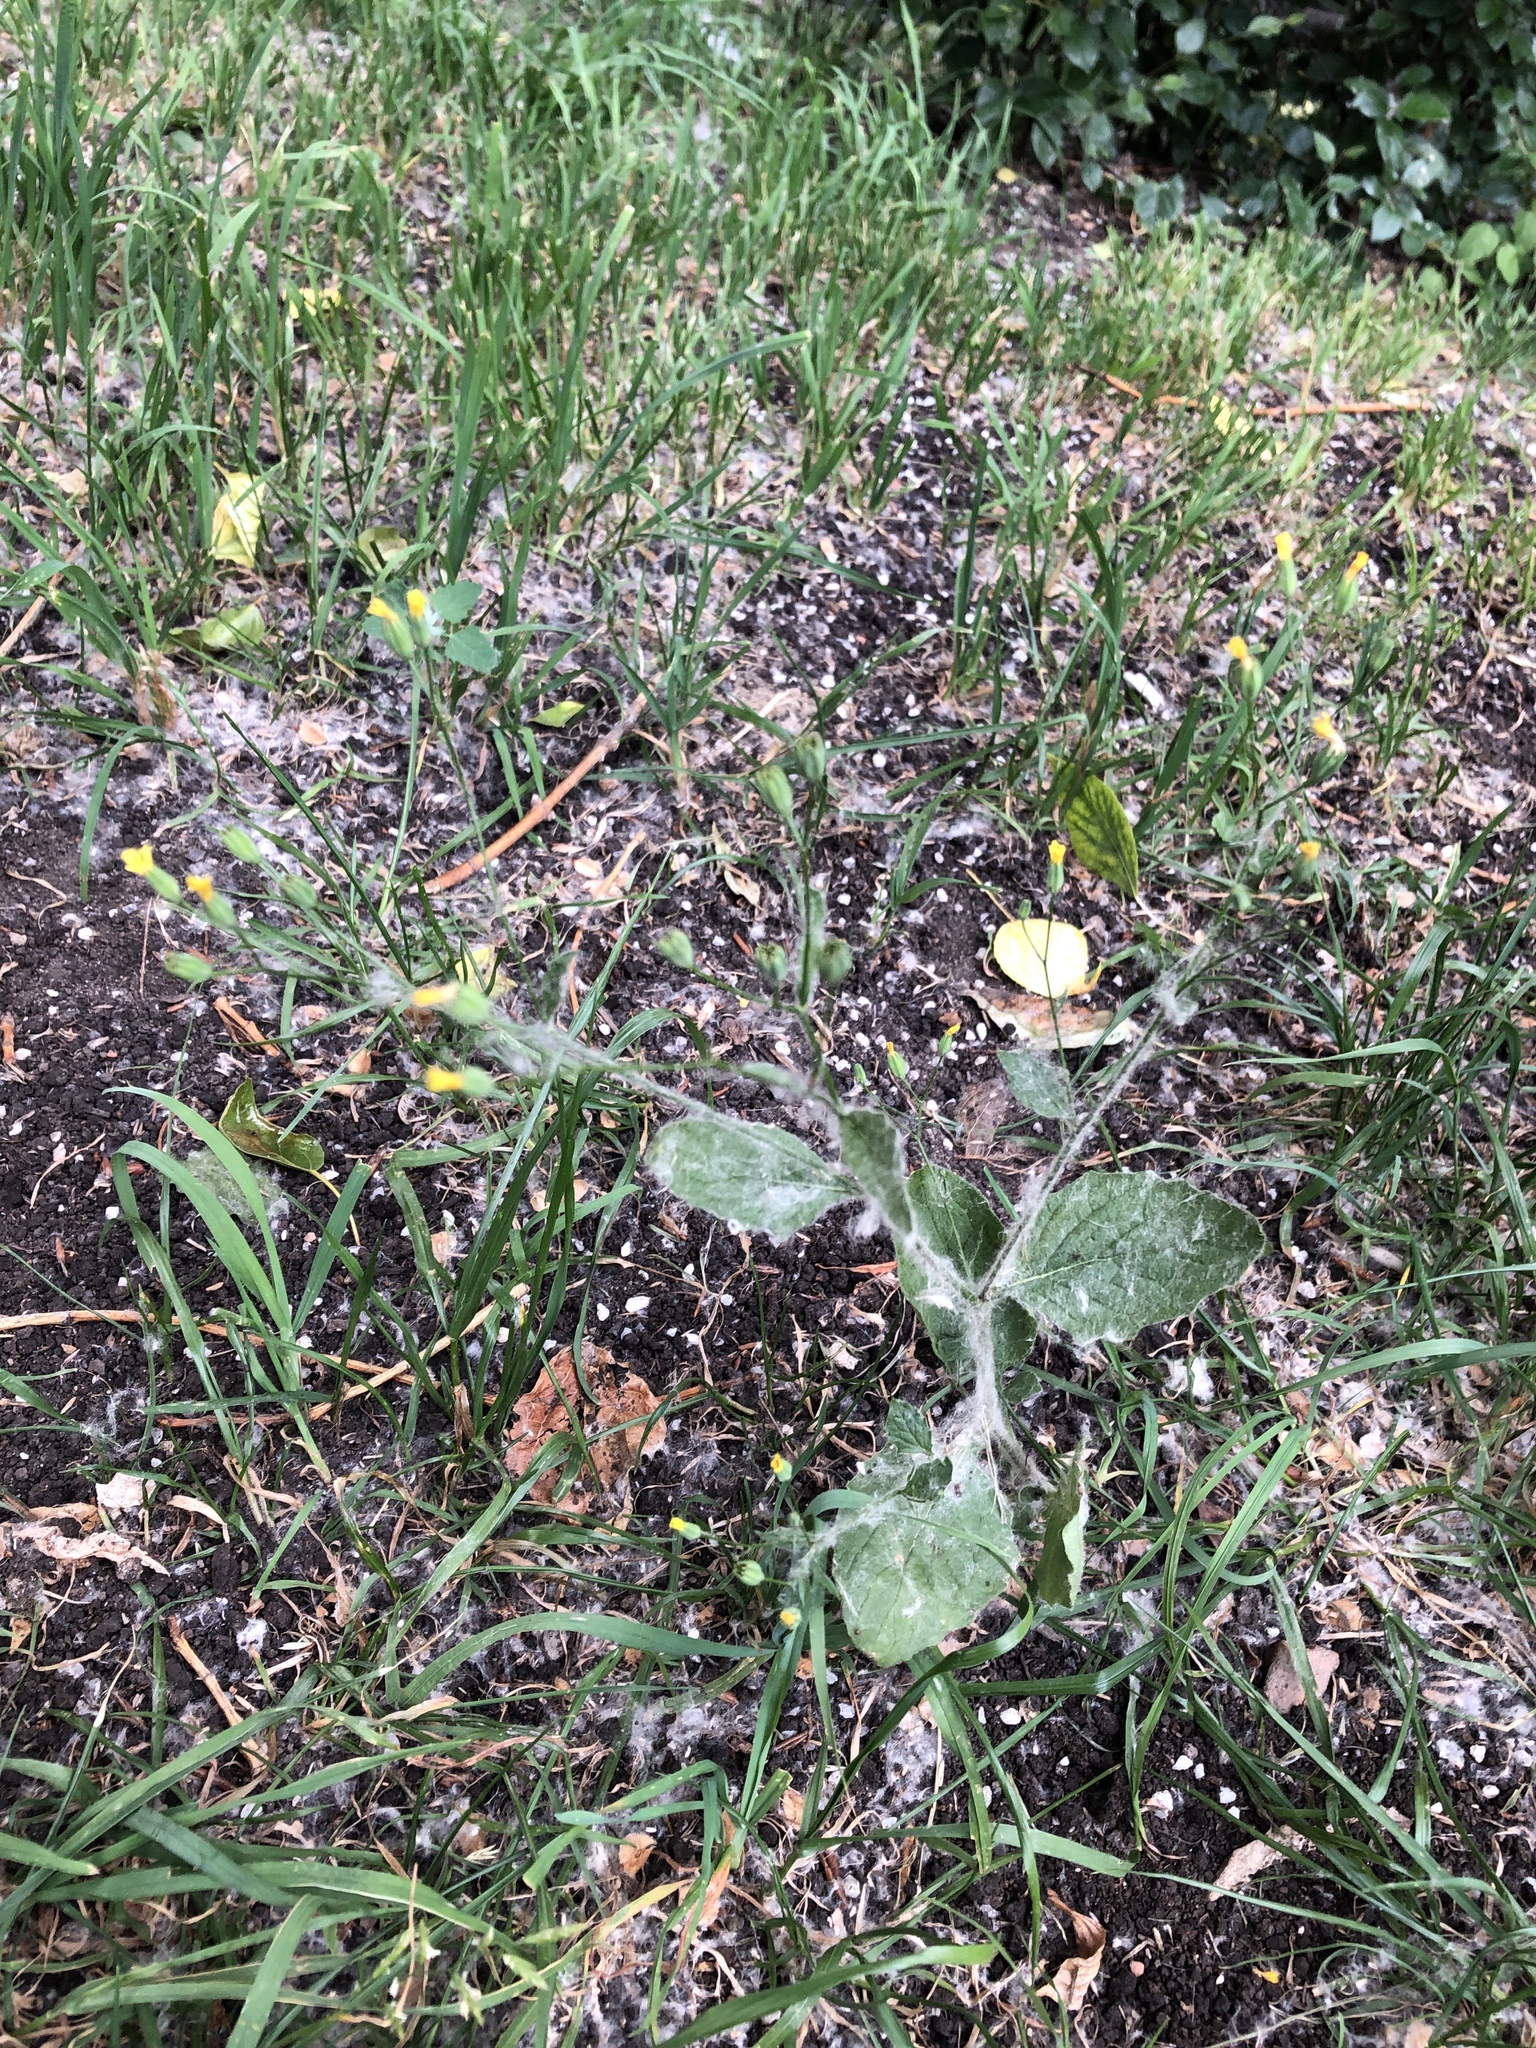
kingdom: Plantae
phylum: Tracheophyta
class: Magnoliopsida
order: Asterales
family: Asteraceae
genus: Lapsana
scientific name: Lapsana communis
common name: Nipplewort
